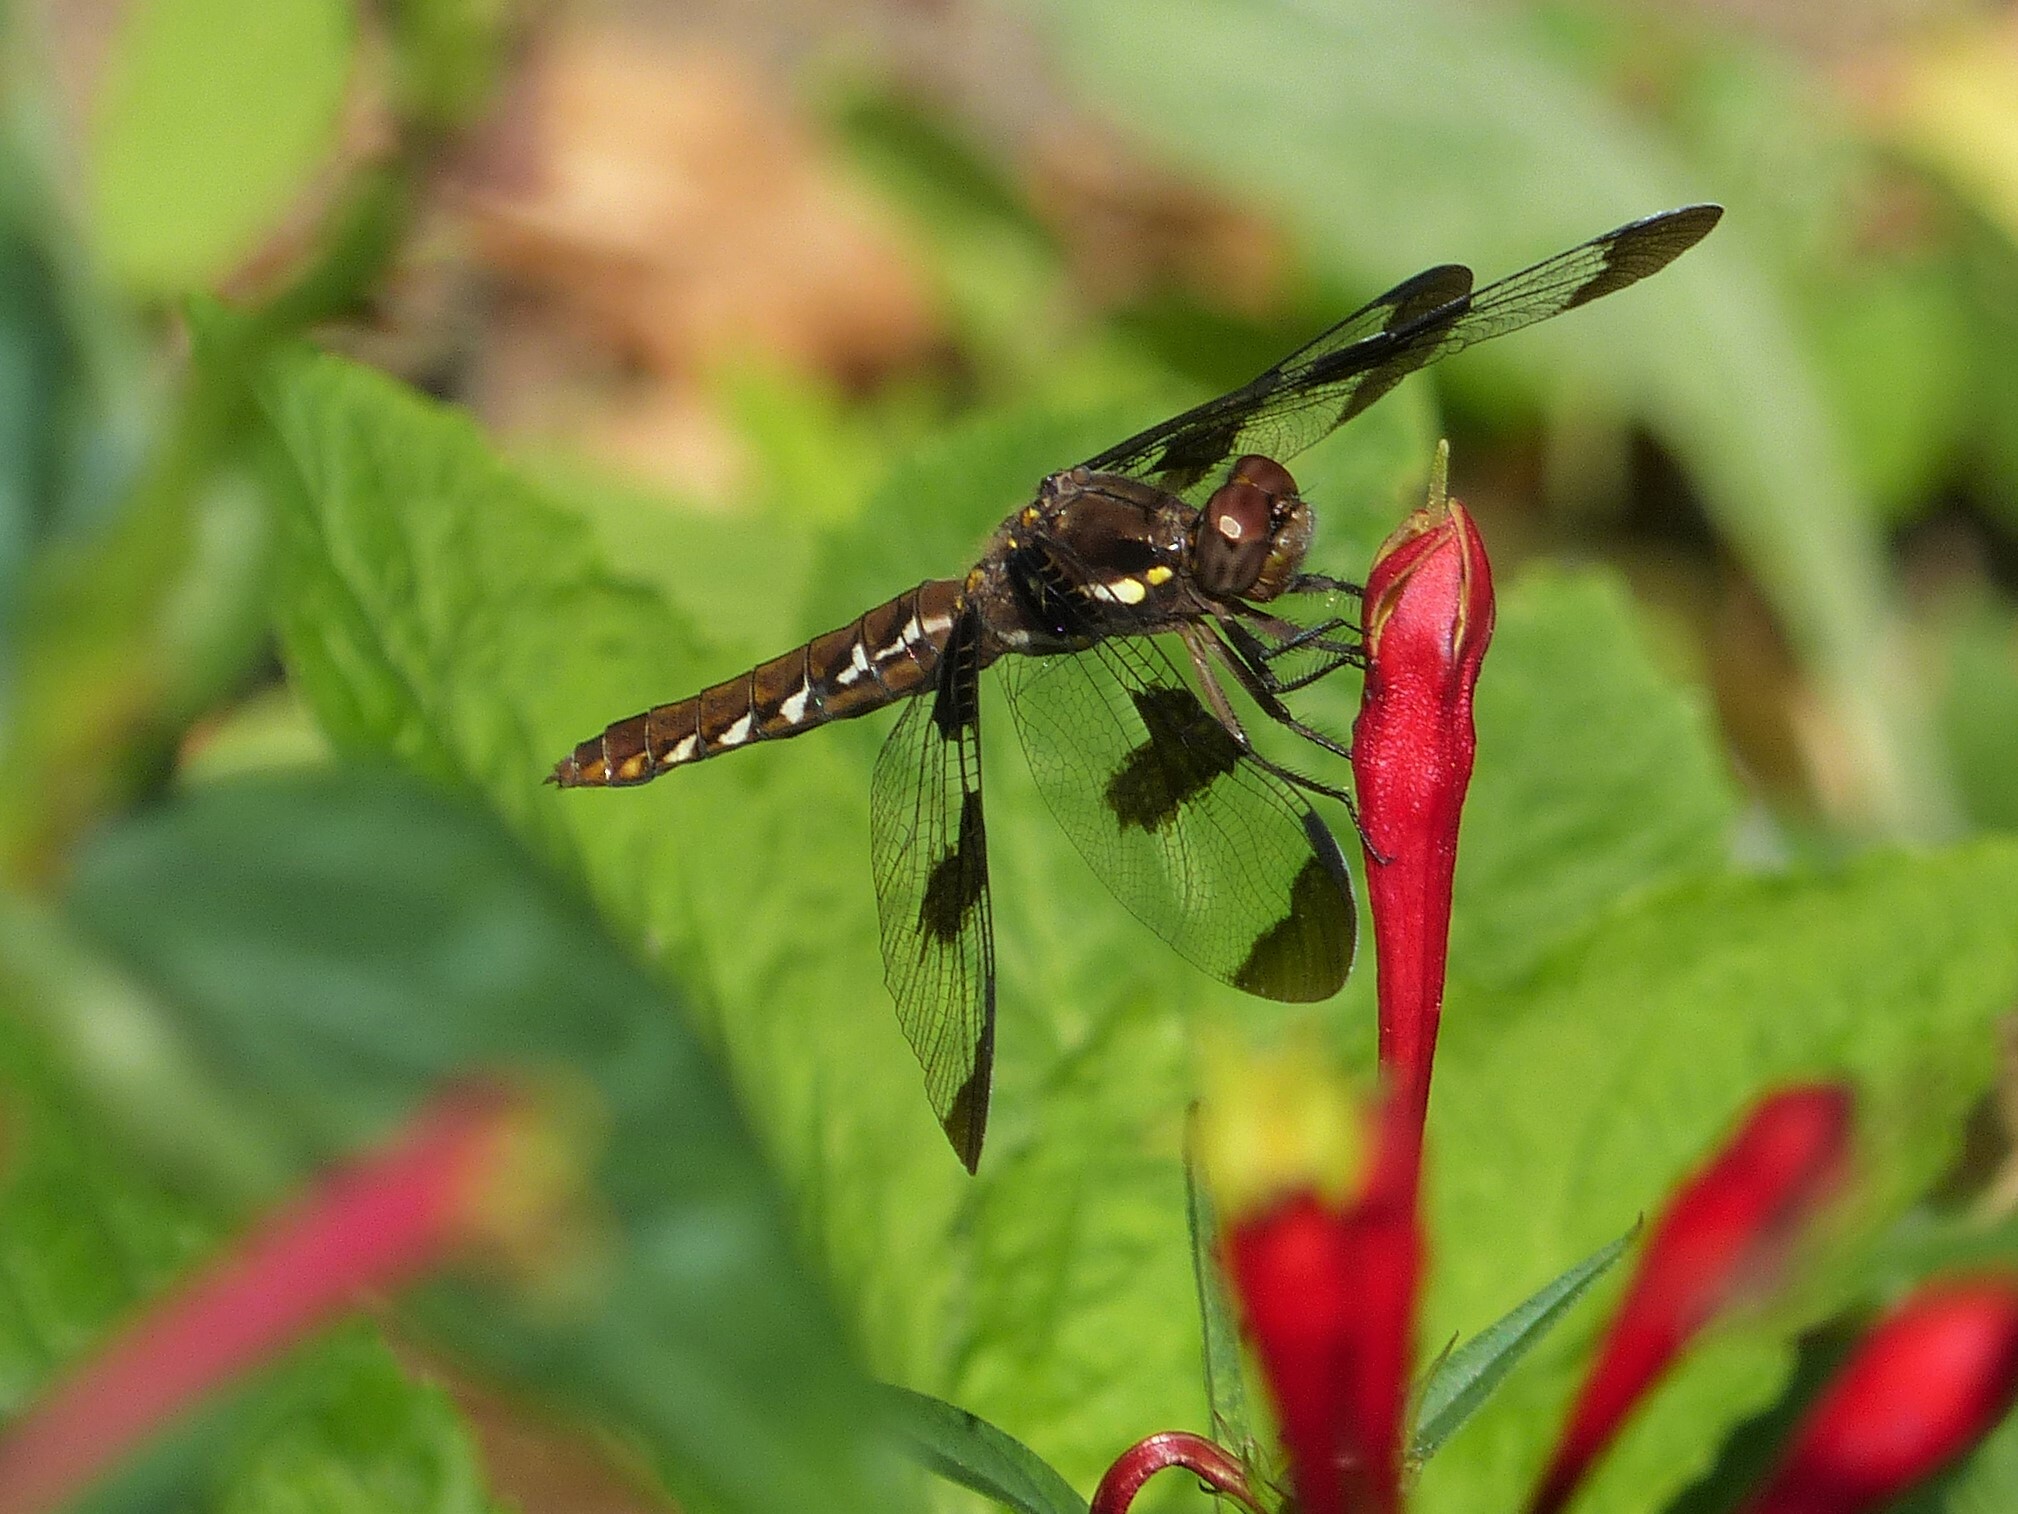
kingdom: Animalia
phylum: Arthropoda
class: Insecta
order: Odonata
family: Libellulidae
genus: Plathemis
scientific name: Plathemis lydia
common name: Common whitetail
